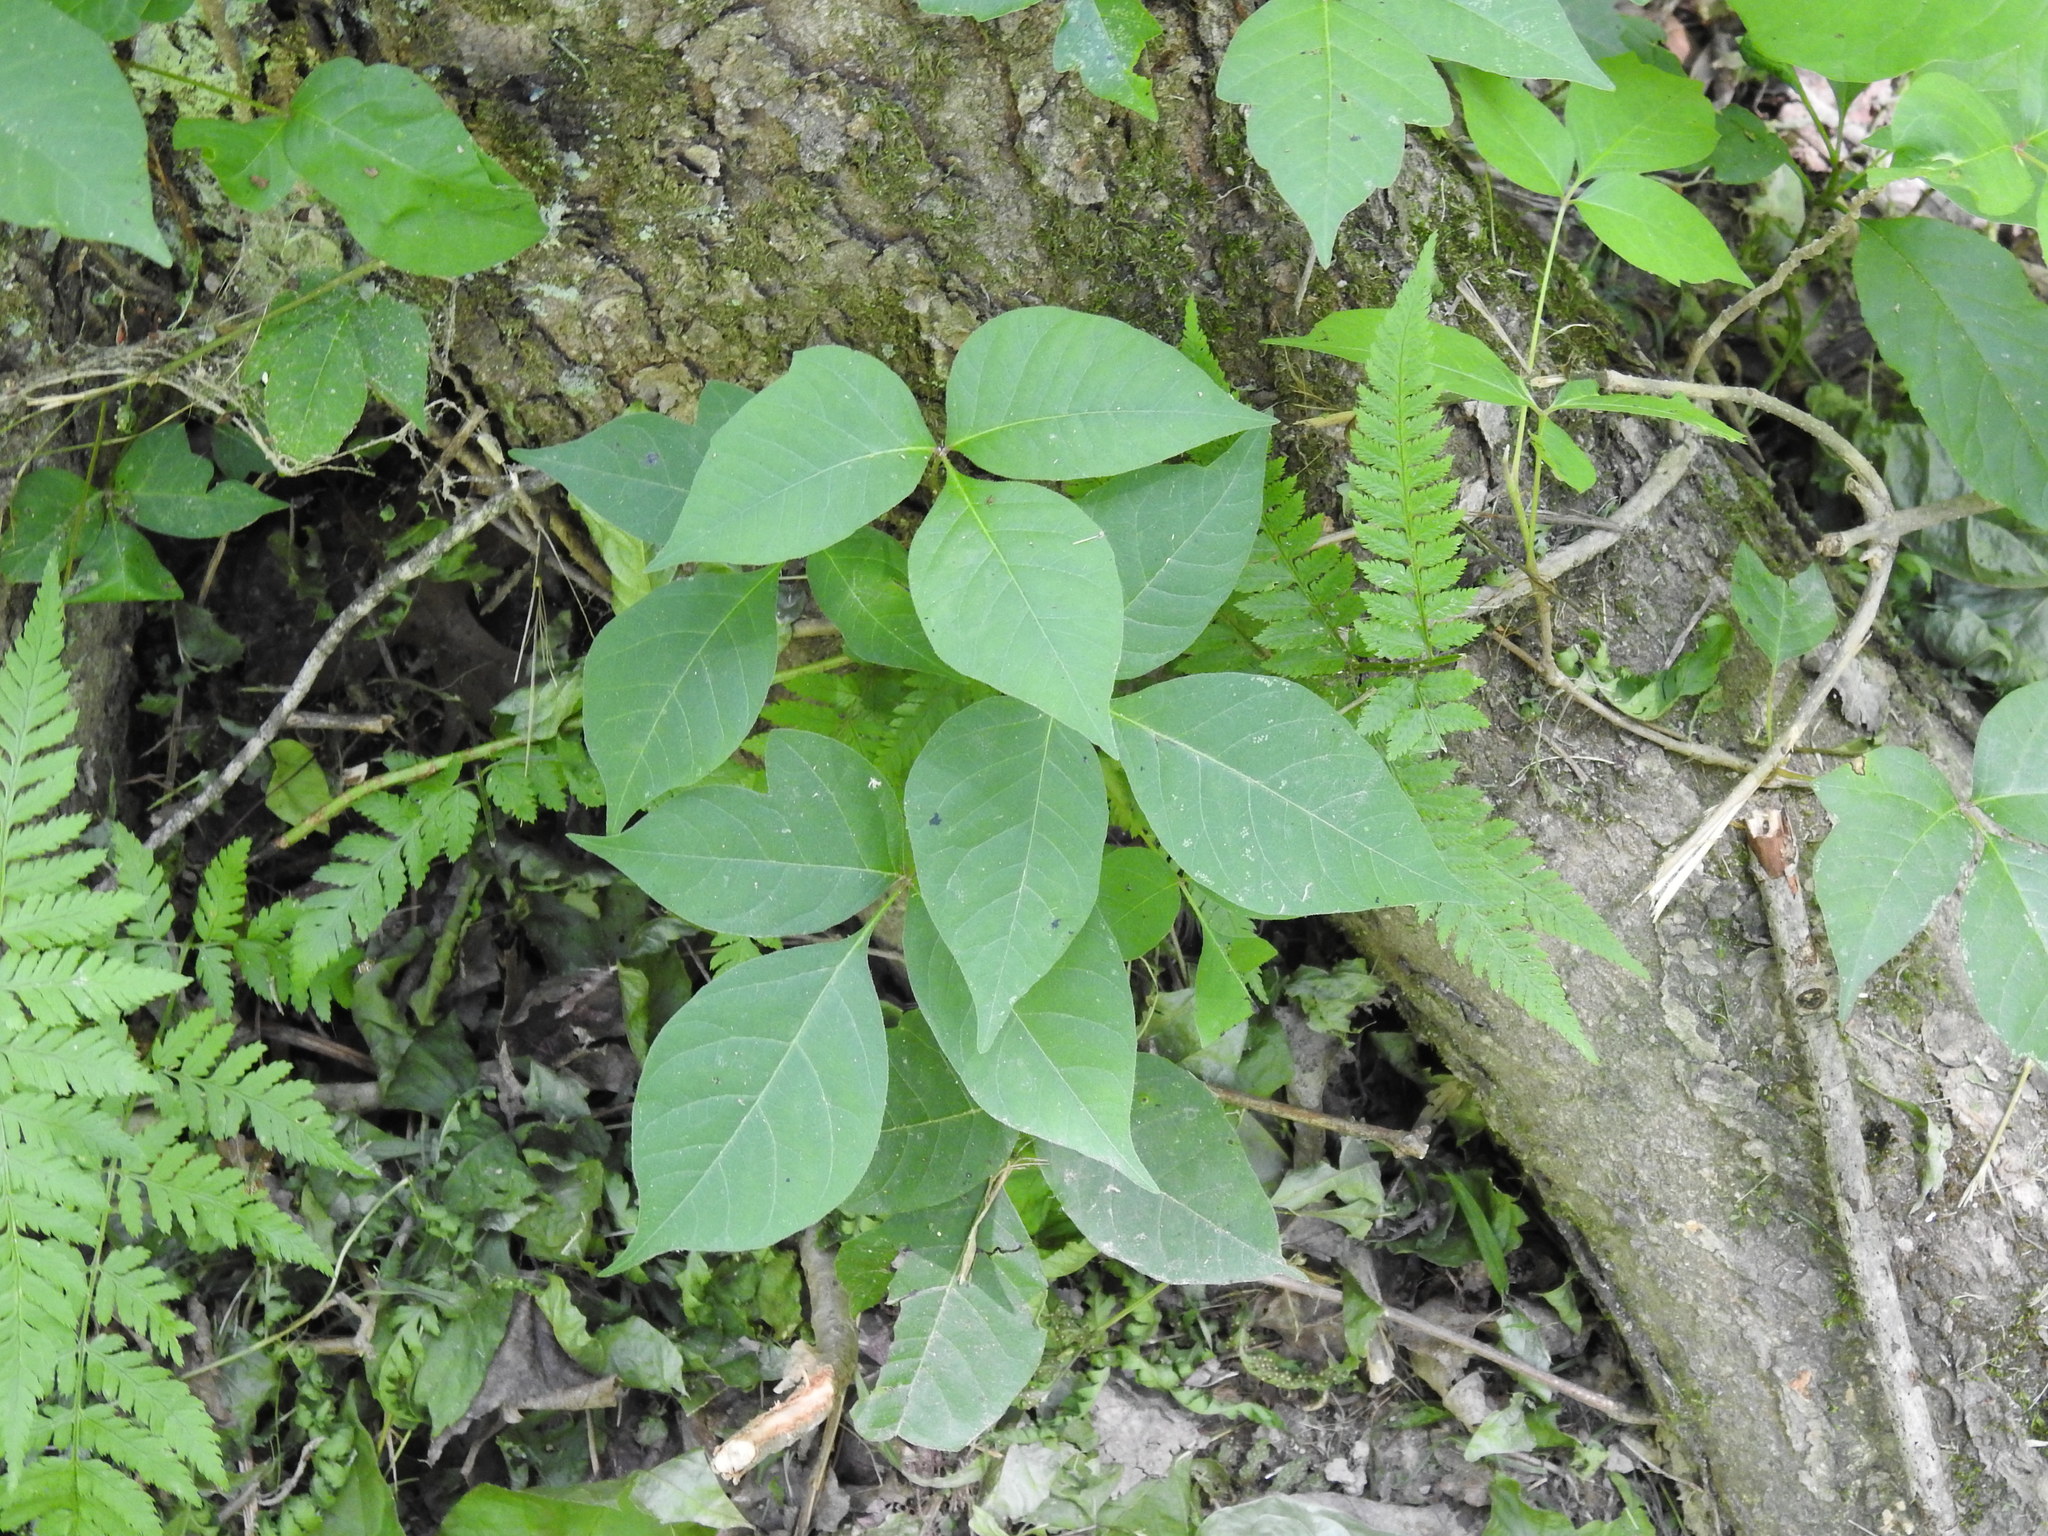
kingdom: Plantae
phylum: Tracheophyta
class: Magnoliopsida
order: Sapindales
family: Anacardiaceae
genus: Toxicodendron
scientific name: Toxicodendron radicans
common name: Poison ivy
